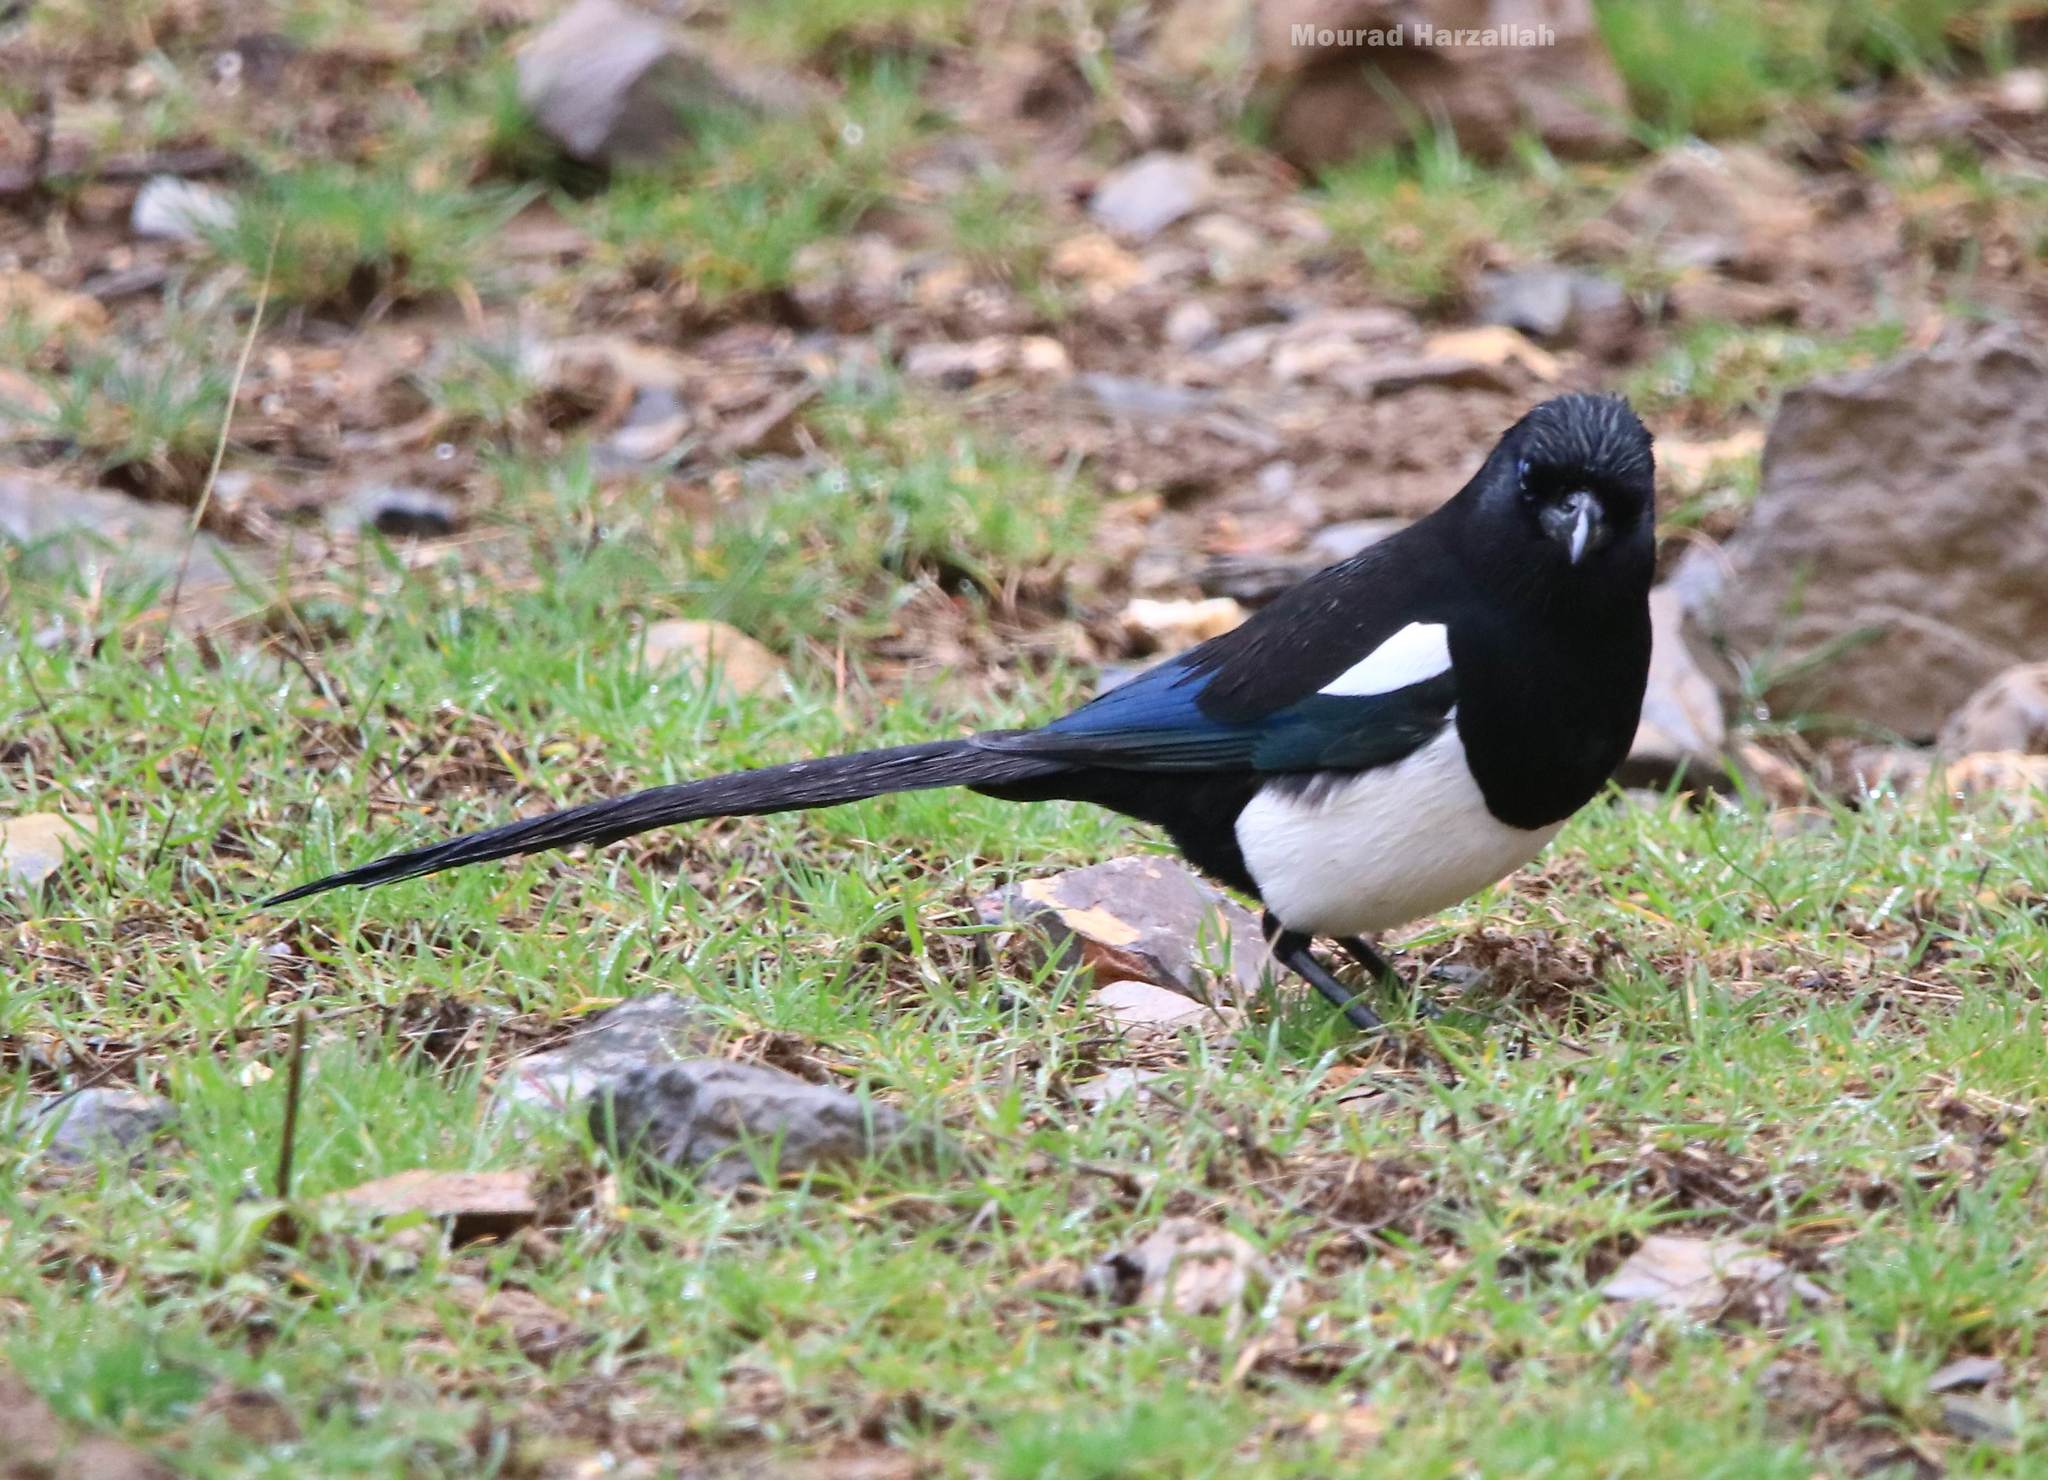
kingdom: Animalia
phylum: Chordata
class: Aves
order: Passeriformes
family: Corvidae
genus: Pica
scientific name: Pica mauritanica
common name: Maghreb magpie
